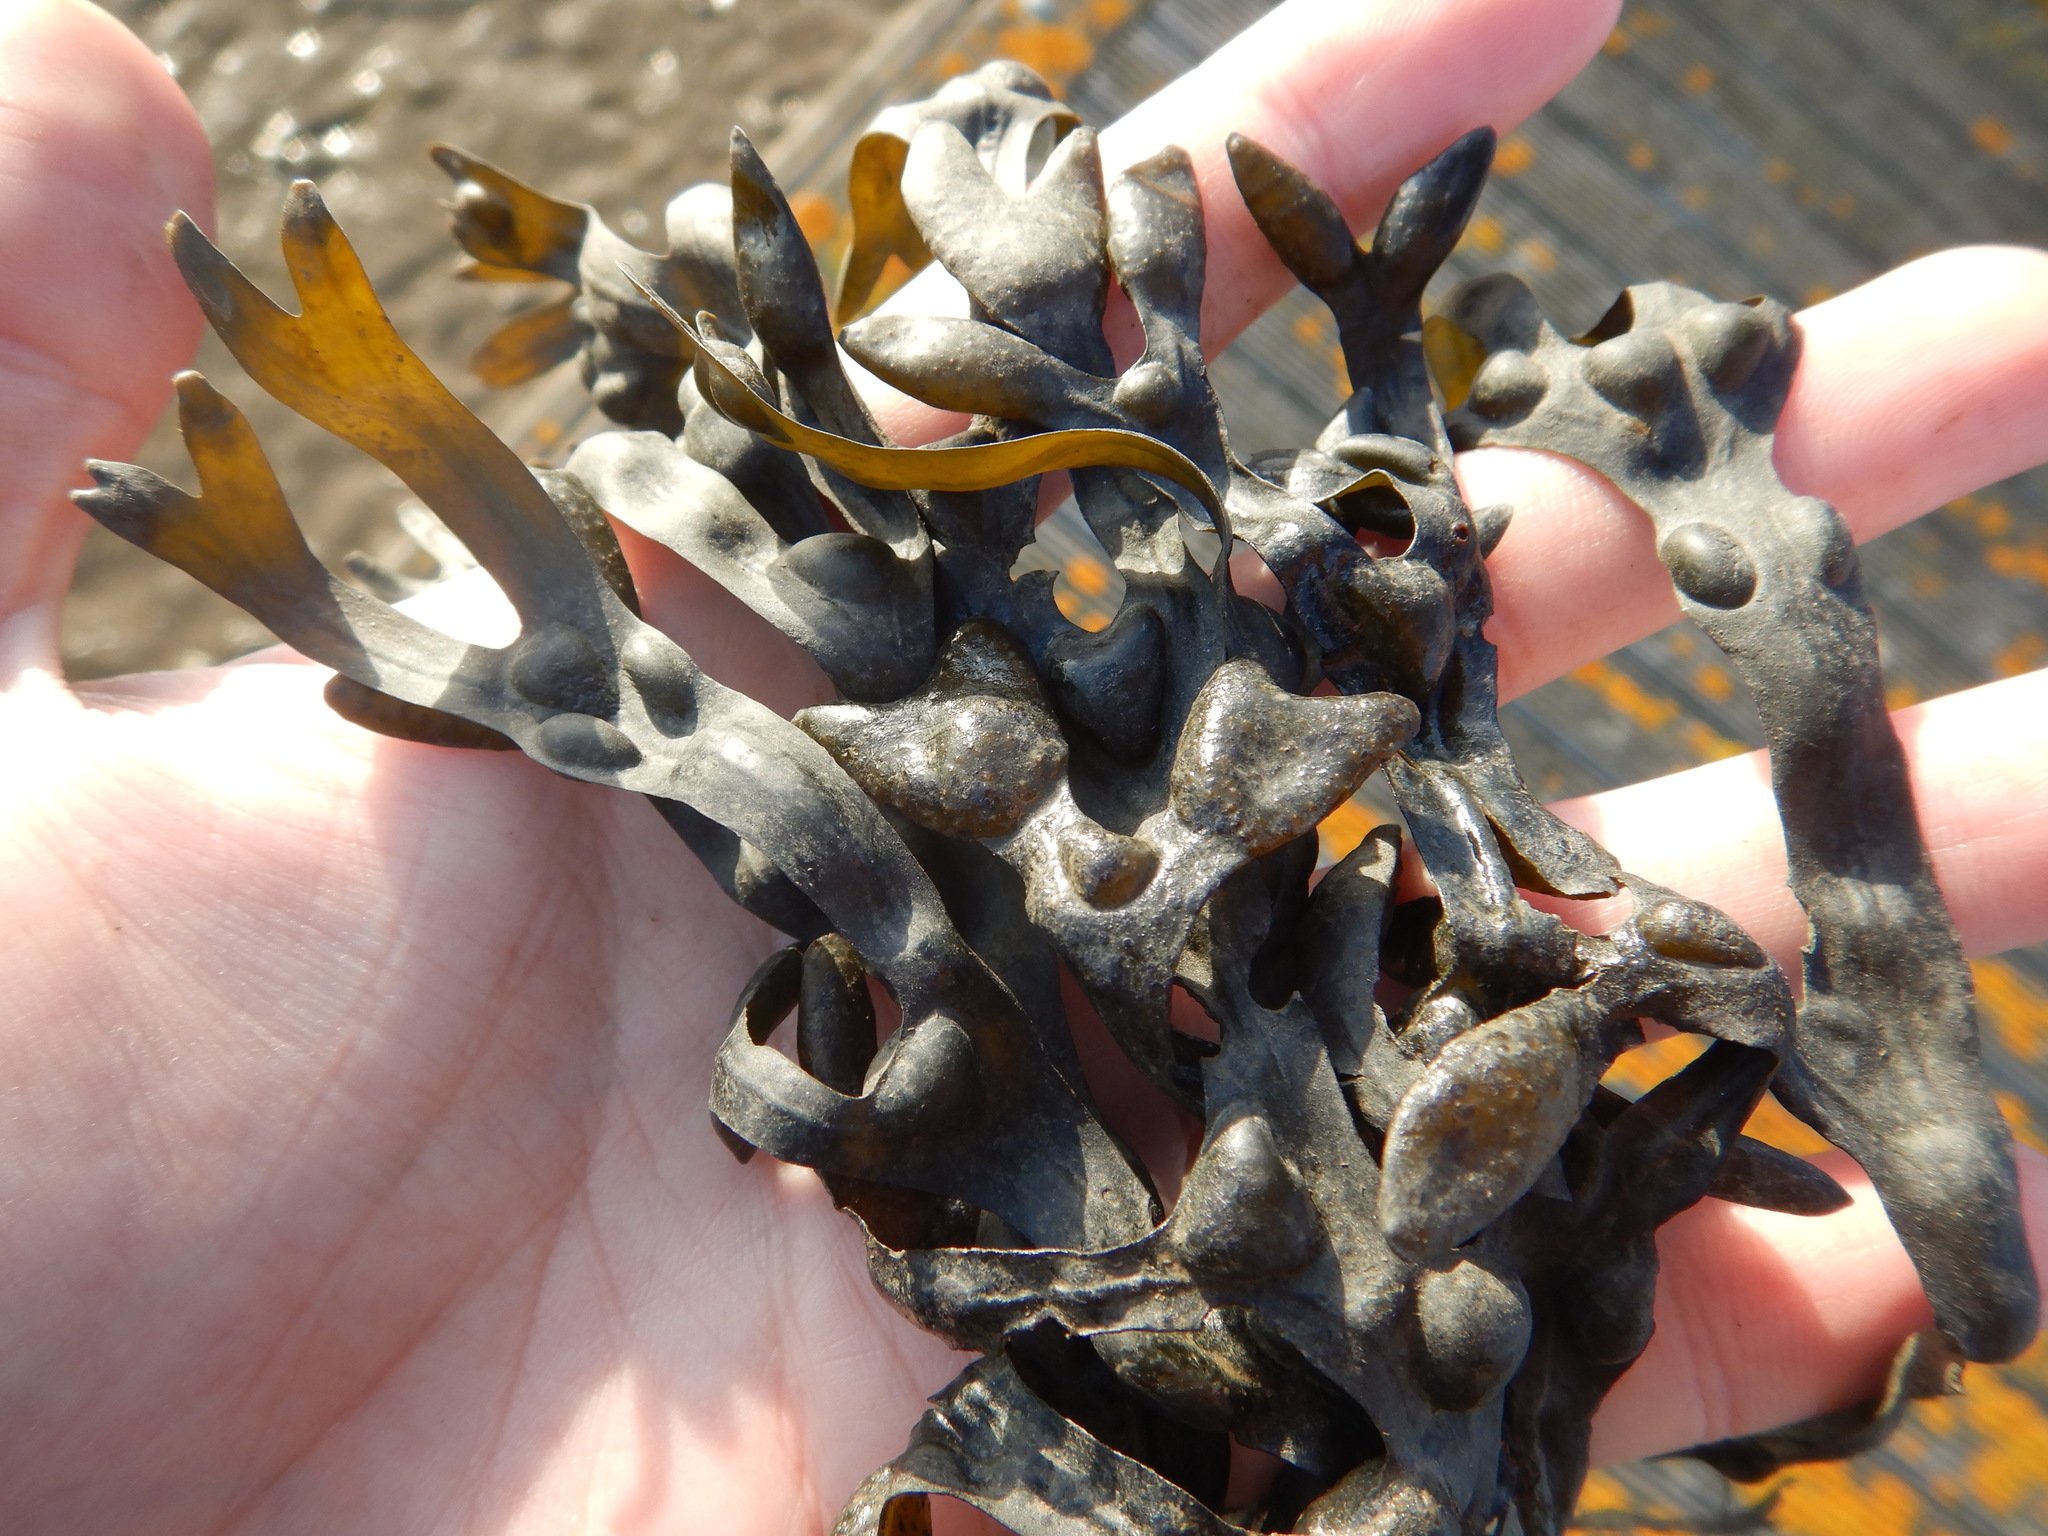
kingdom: Chromista
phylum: Ochrophyta
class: Phaeophyceae
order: Fucales
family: Fucaceae
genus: Fucus
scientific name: Fucus vesiculosus
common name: Bladder wrack
